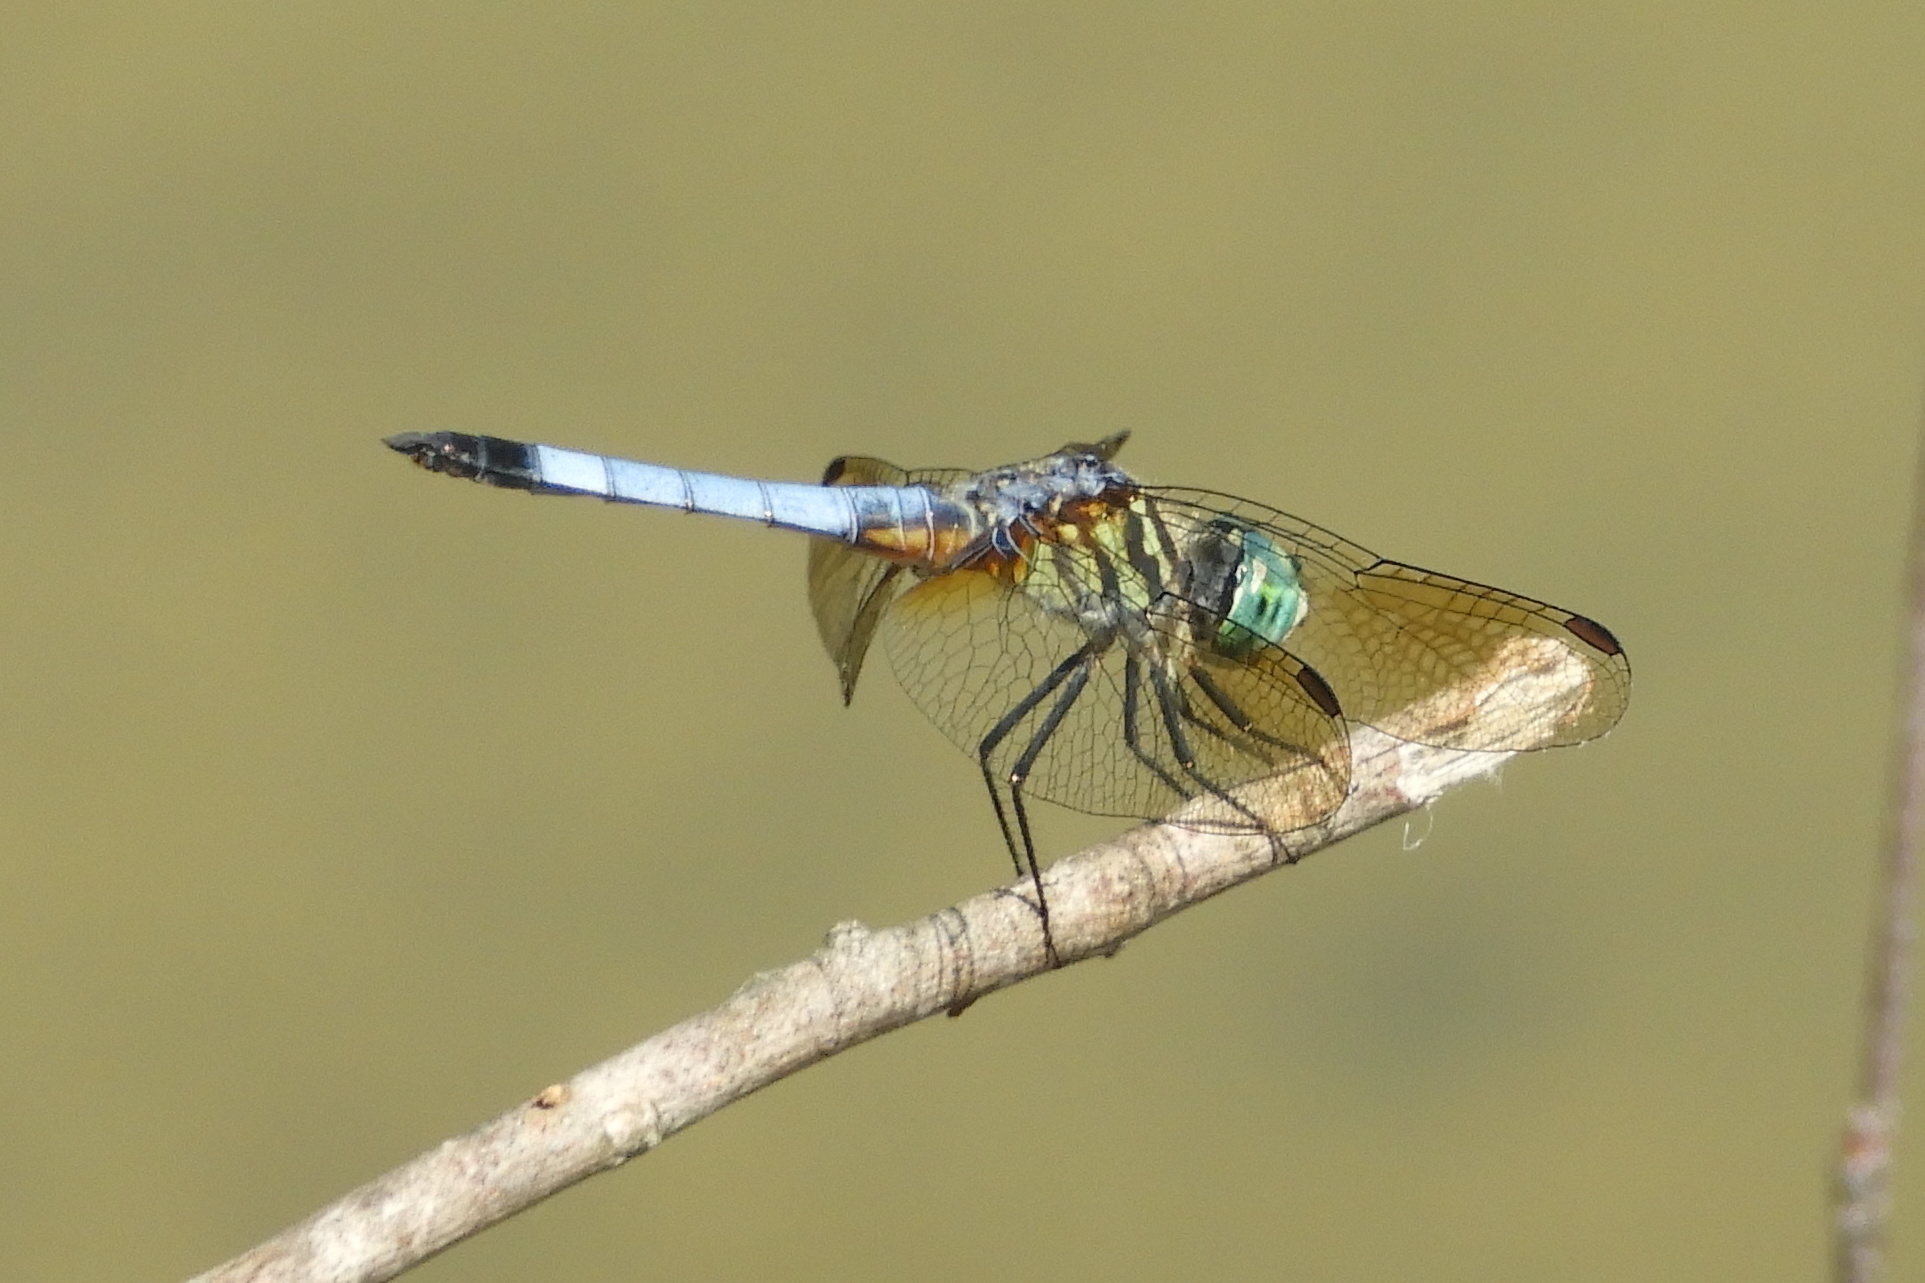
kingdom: Animalia
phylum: Arthropoda
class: Insecta
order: Odonata
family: Libellulidae
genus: Pachydiplax
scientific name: Pachydiplax longipennis
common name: Blue dasher
